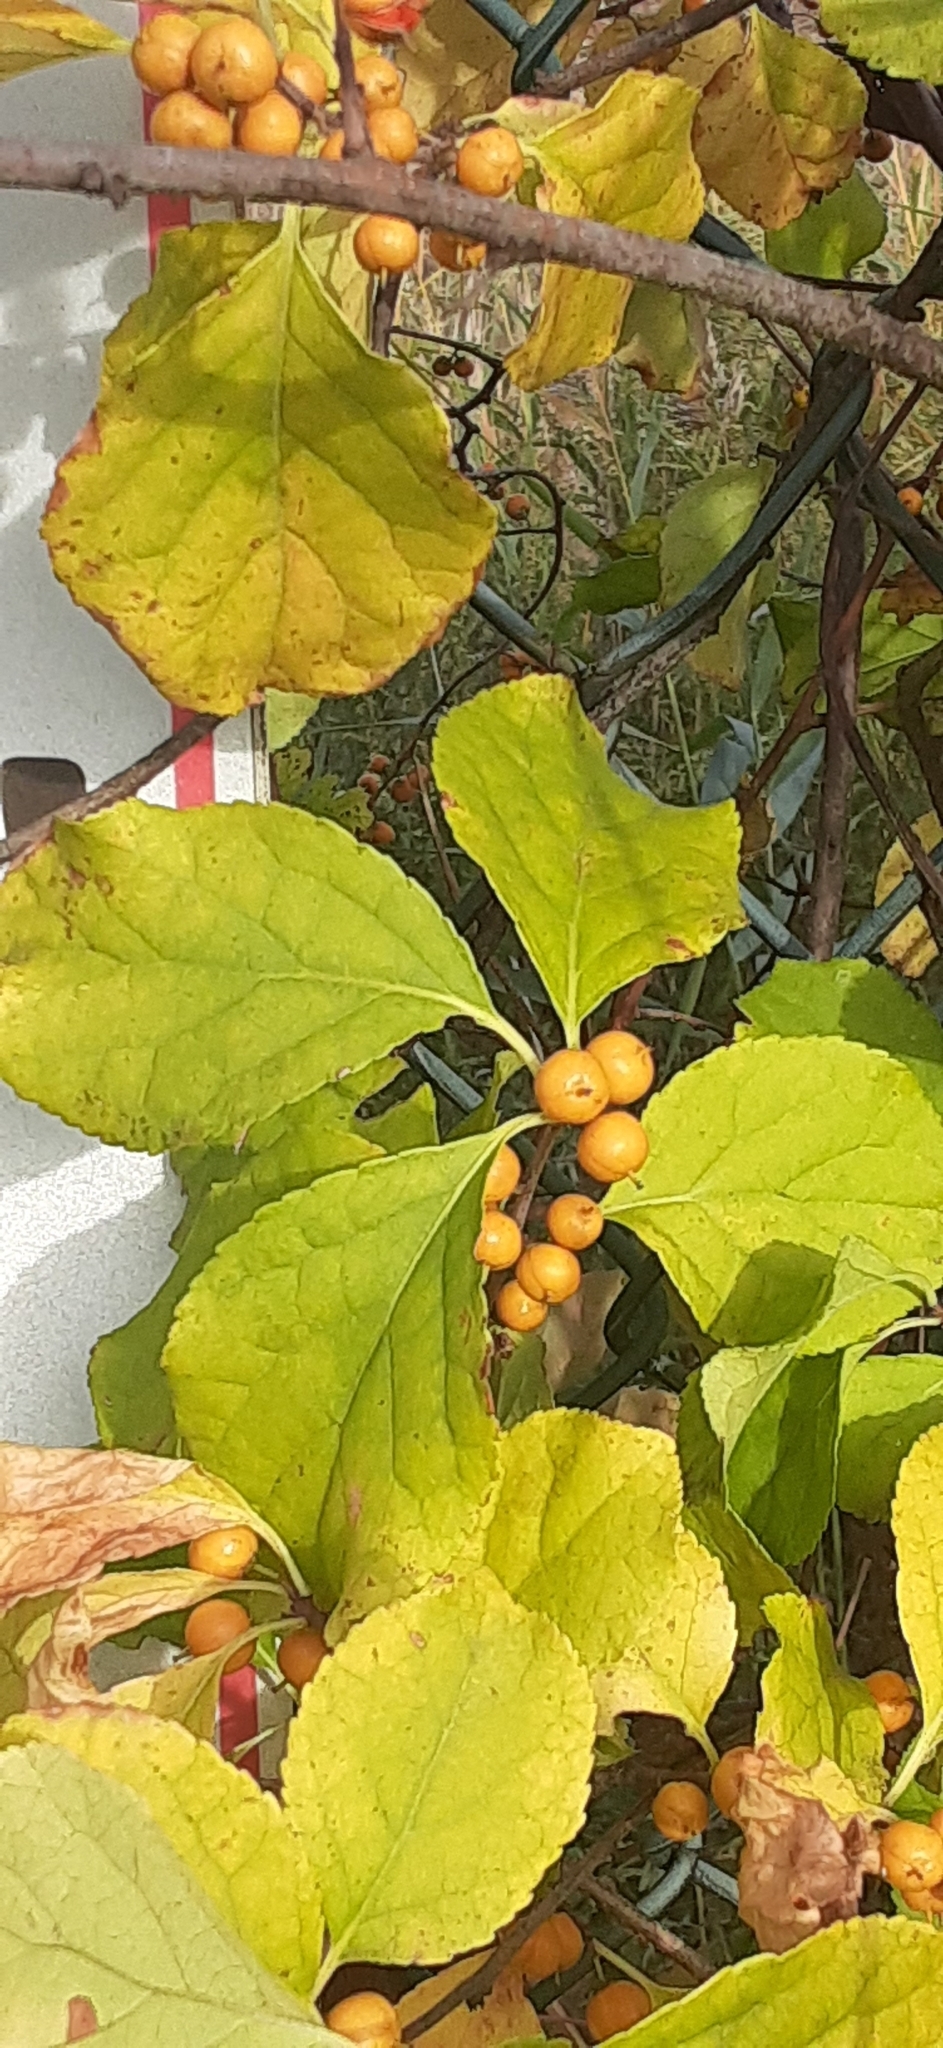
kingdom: Plantae
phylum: Tracheophyta
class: Magnoliopsida
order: Celastrales
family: Celastraceae
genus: Celastrus
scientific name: Celastrus orbiculatus
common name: Oriental bittersweet
